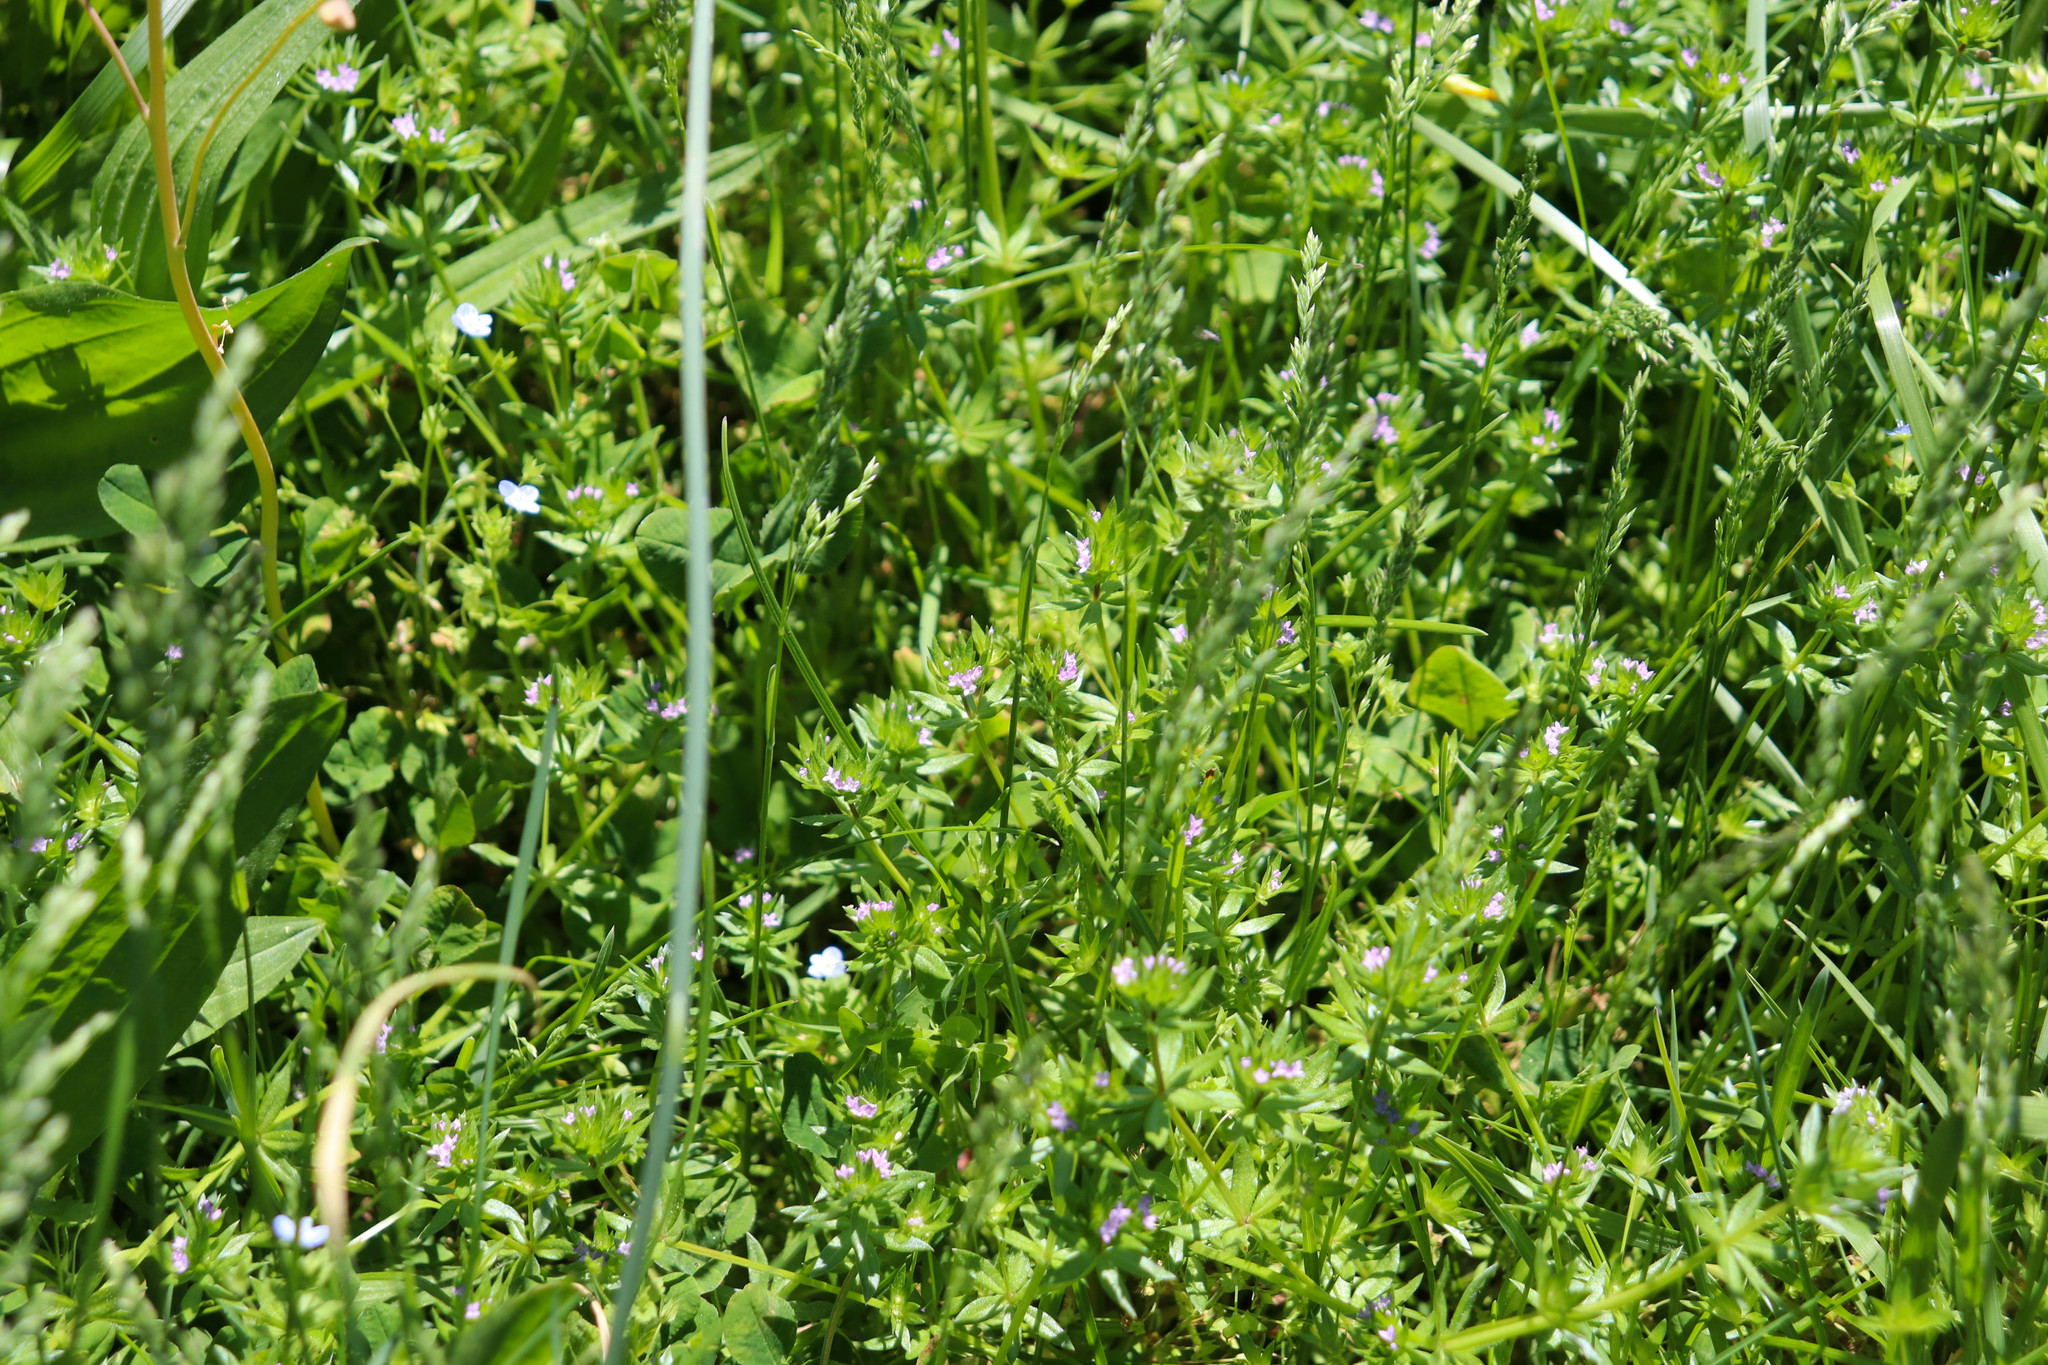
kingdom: Plantae
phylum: Tracheophyta
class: Magnoliopsida
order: Gentianales
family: Rubiaceae
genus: Sherardia
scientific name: Sherardia arvensis
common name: Field madder
